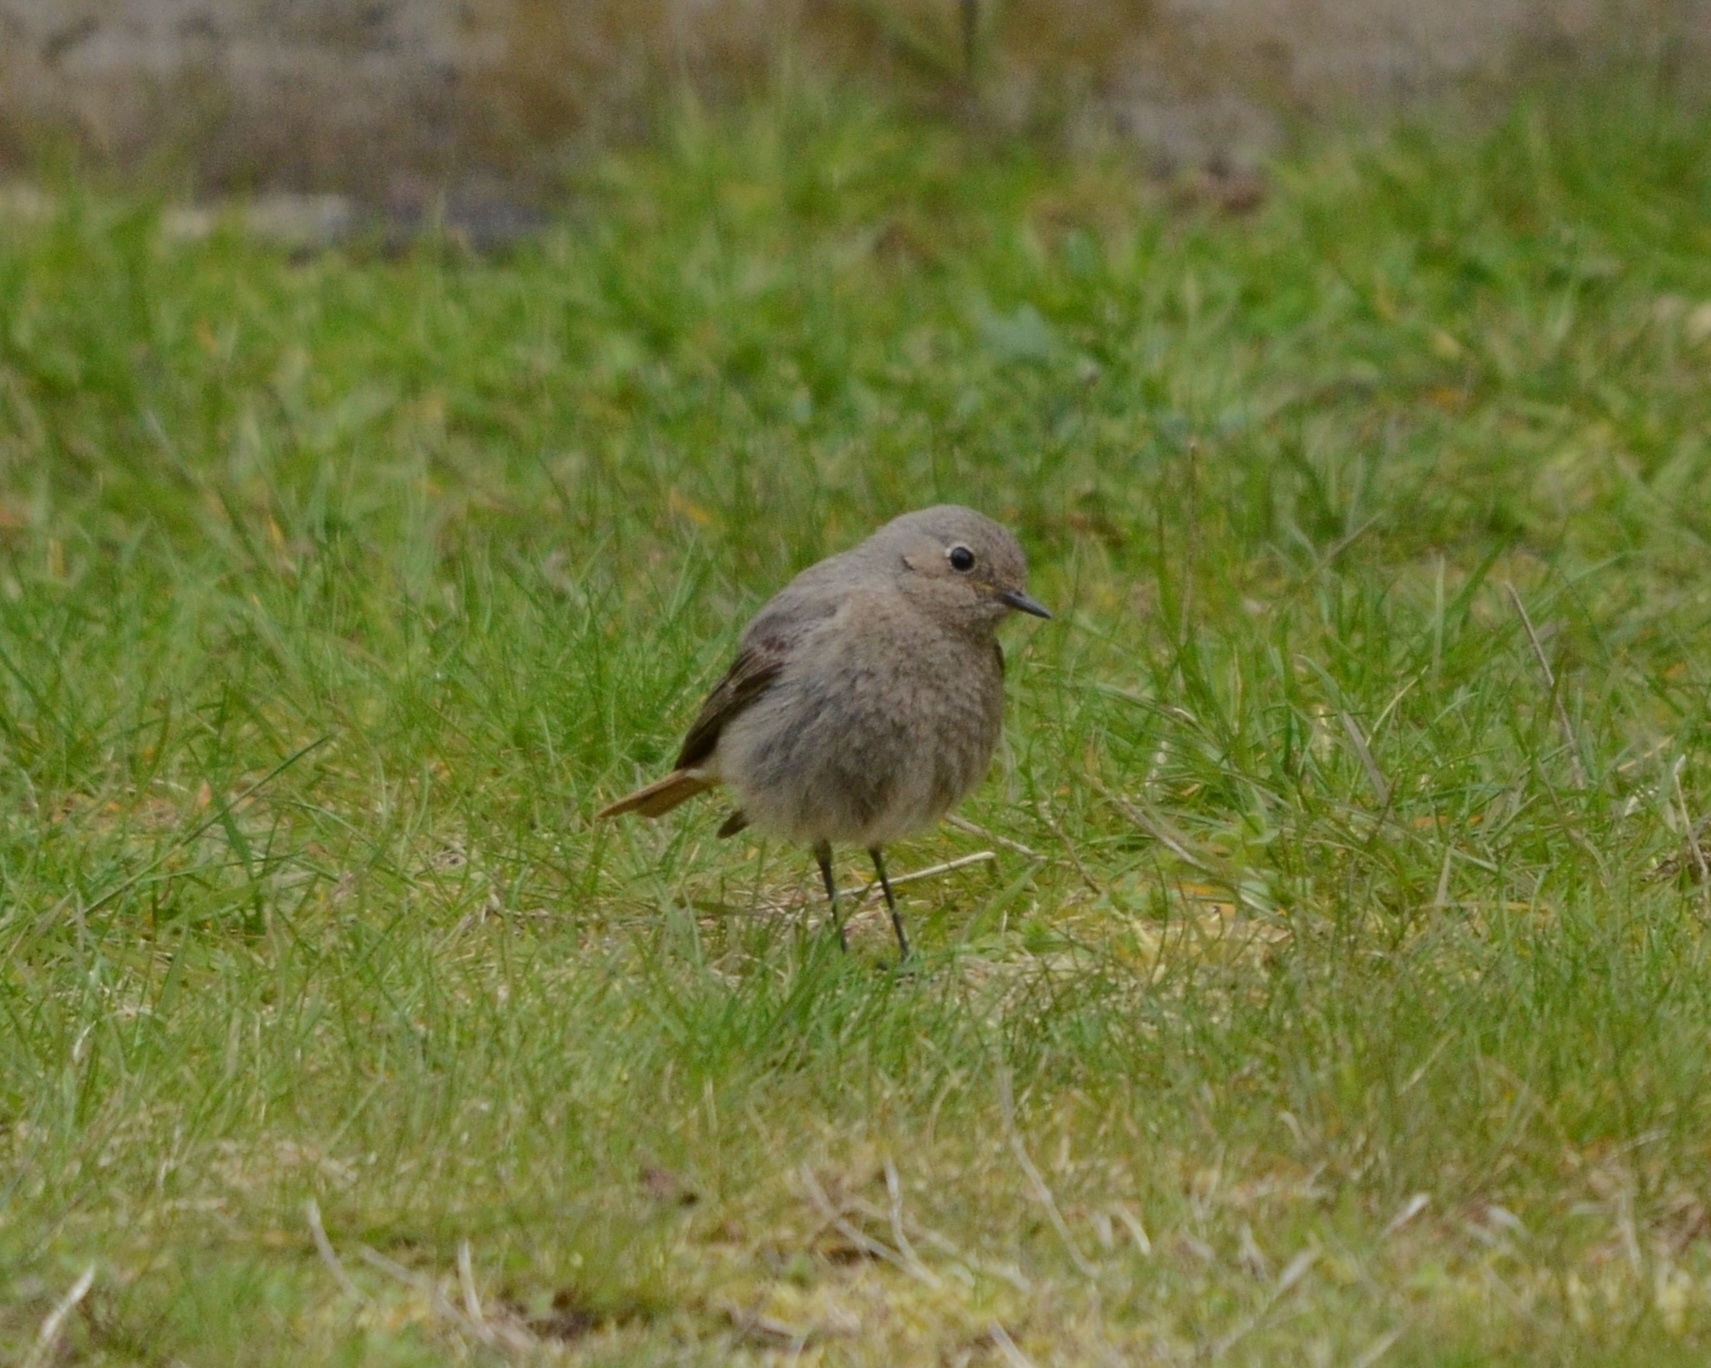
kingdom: Animalia
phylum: Chordata
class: Aves
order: Passeriformes
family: Muscicapidae
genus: Phoenicurus
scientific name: Phoenicurus ochruros
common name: Black redstart
